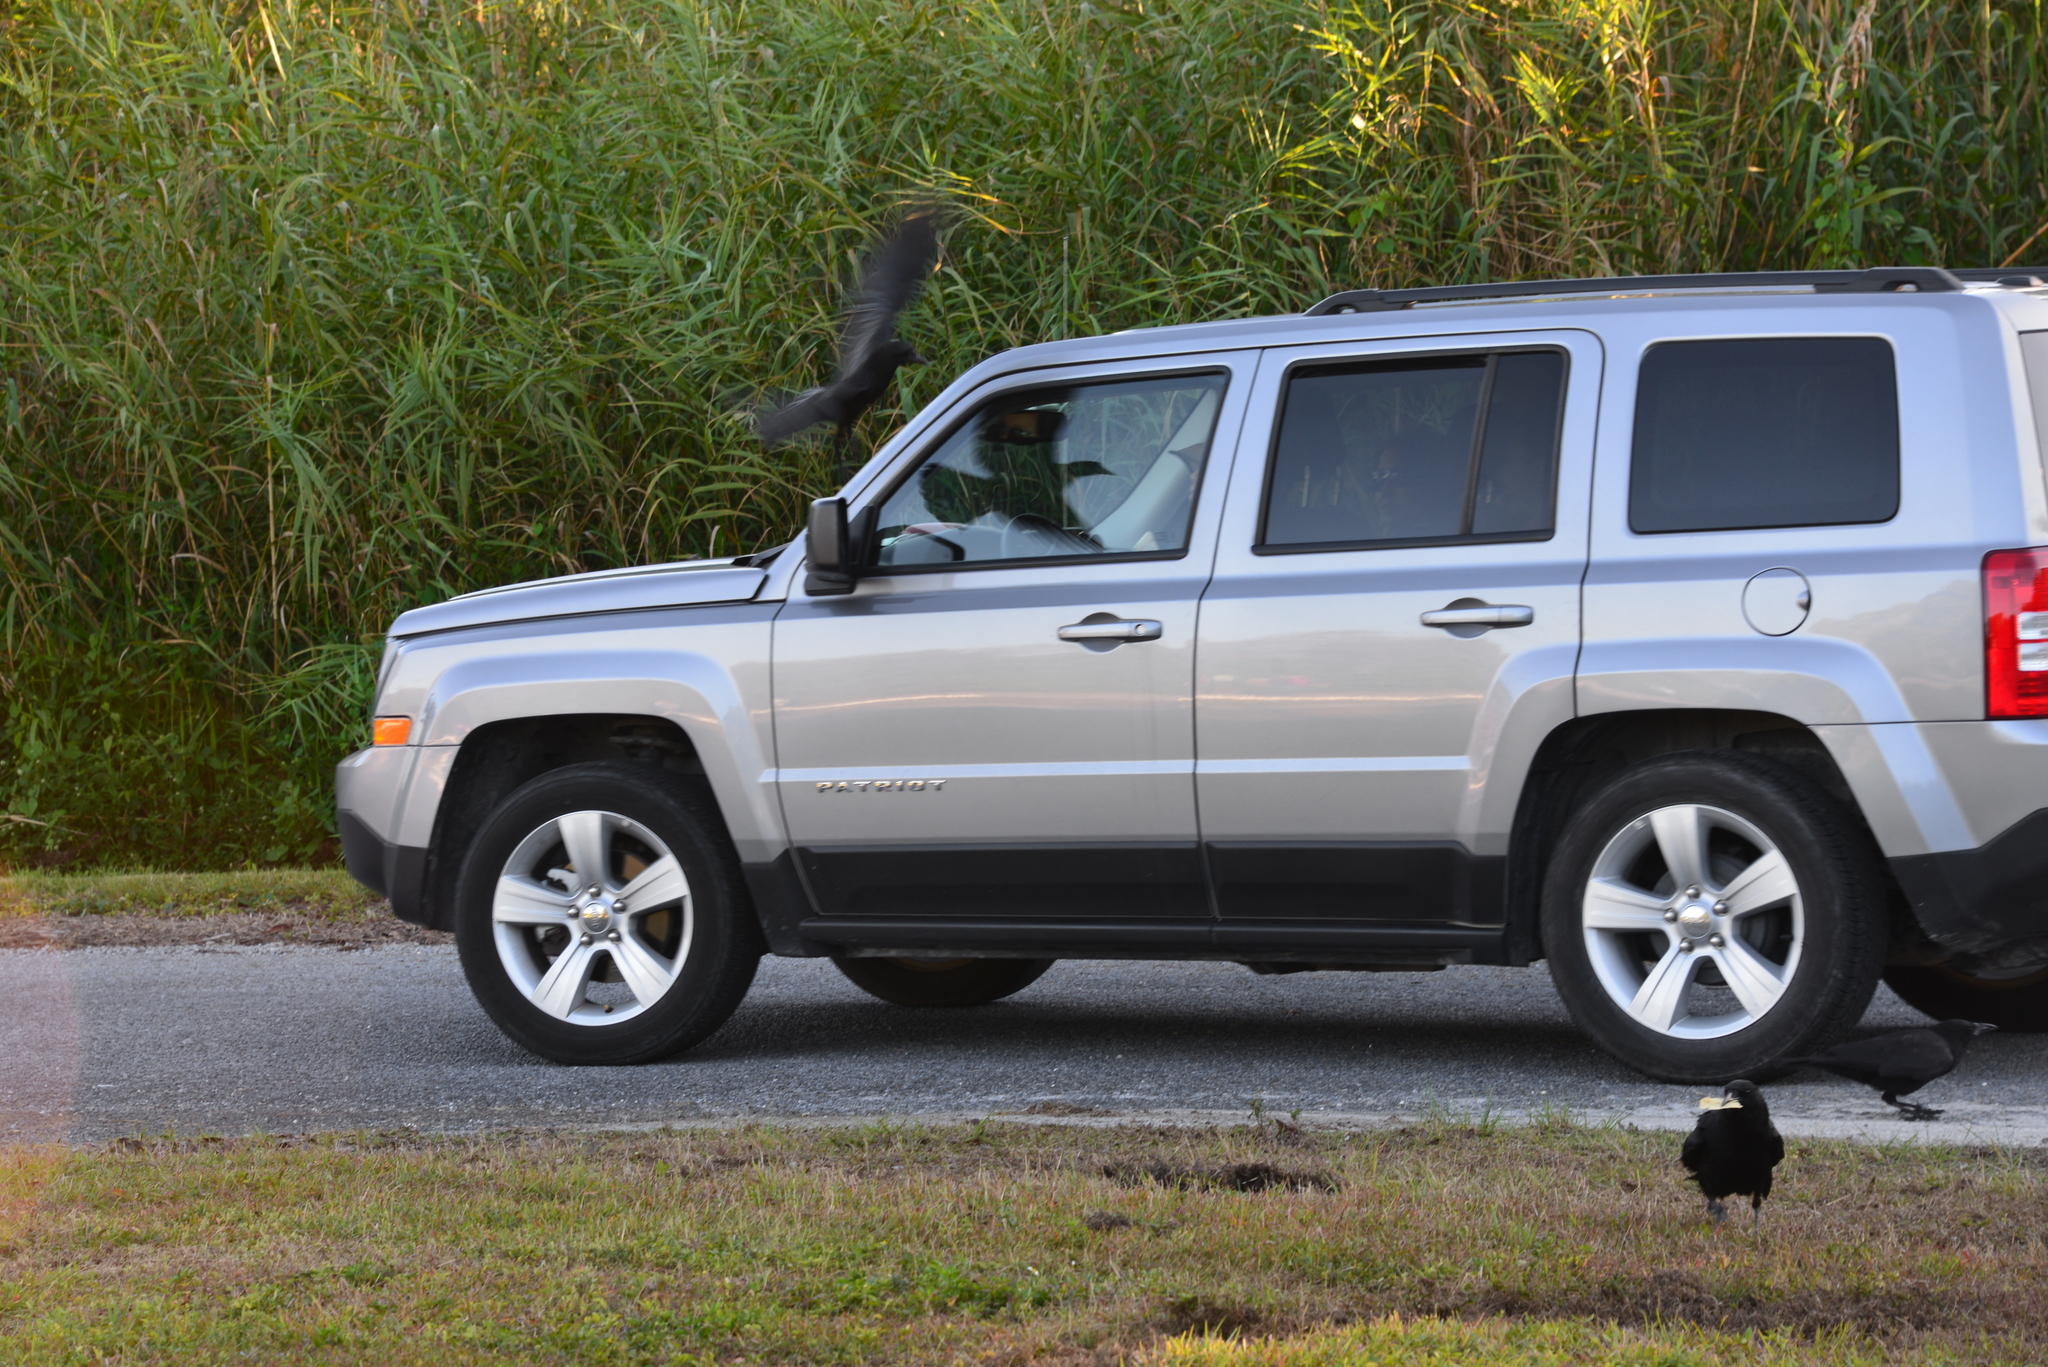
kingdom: Animalia
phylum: Chordata
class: Aves
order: Passeriformes
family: Corvidae
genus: Corvus
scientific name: Corvus brachyrhynchos
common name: American crow
